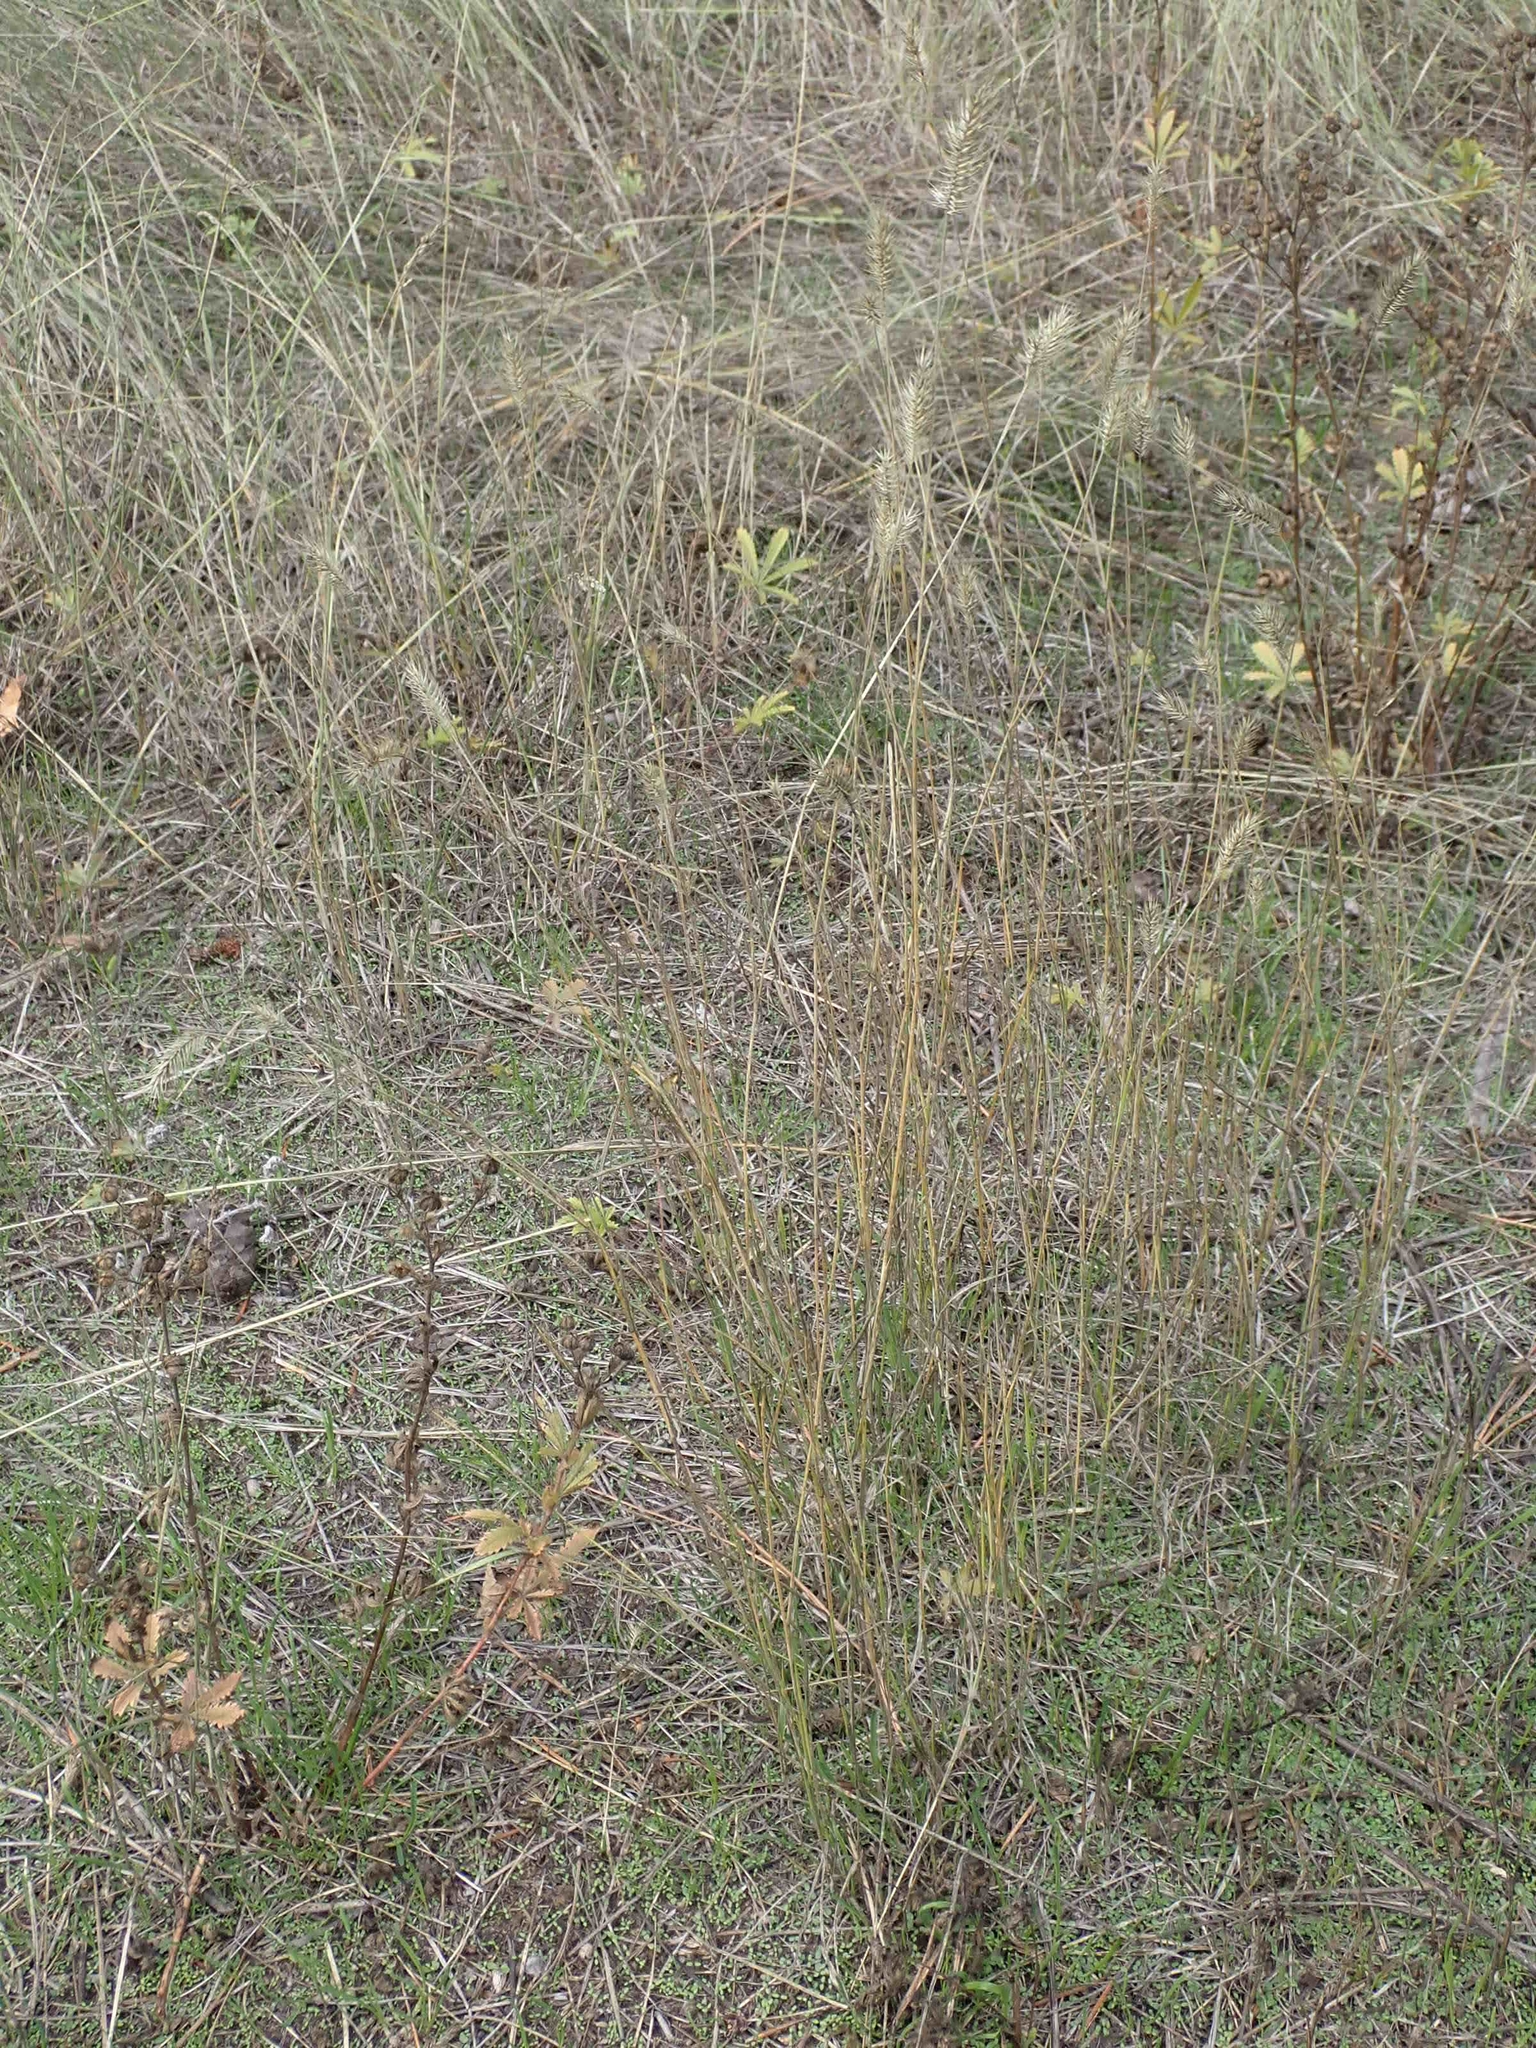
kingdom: Plantae
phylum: Tracheophyta
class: Liliopsida
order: Poales
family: Poaceae
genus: Agropyron
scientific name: Agropyron cristatum
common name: Crested wheatgrass
